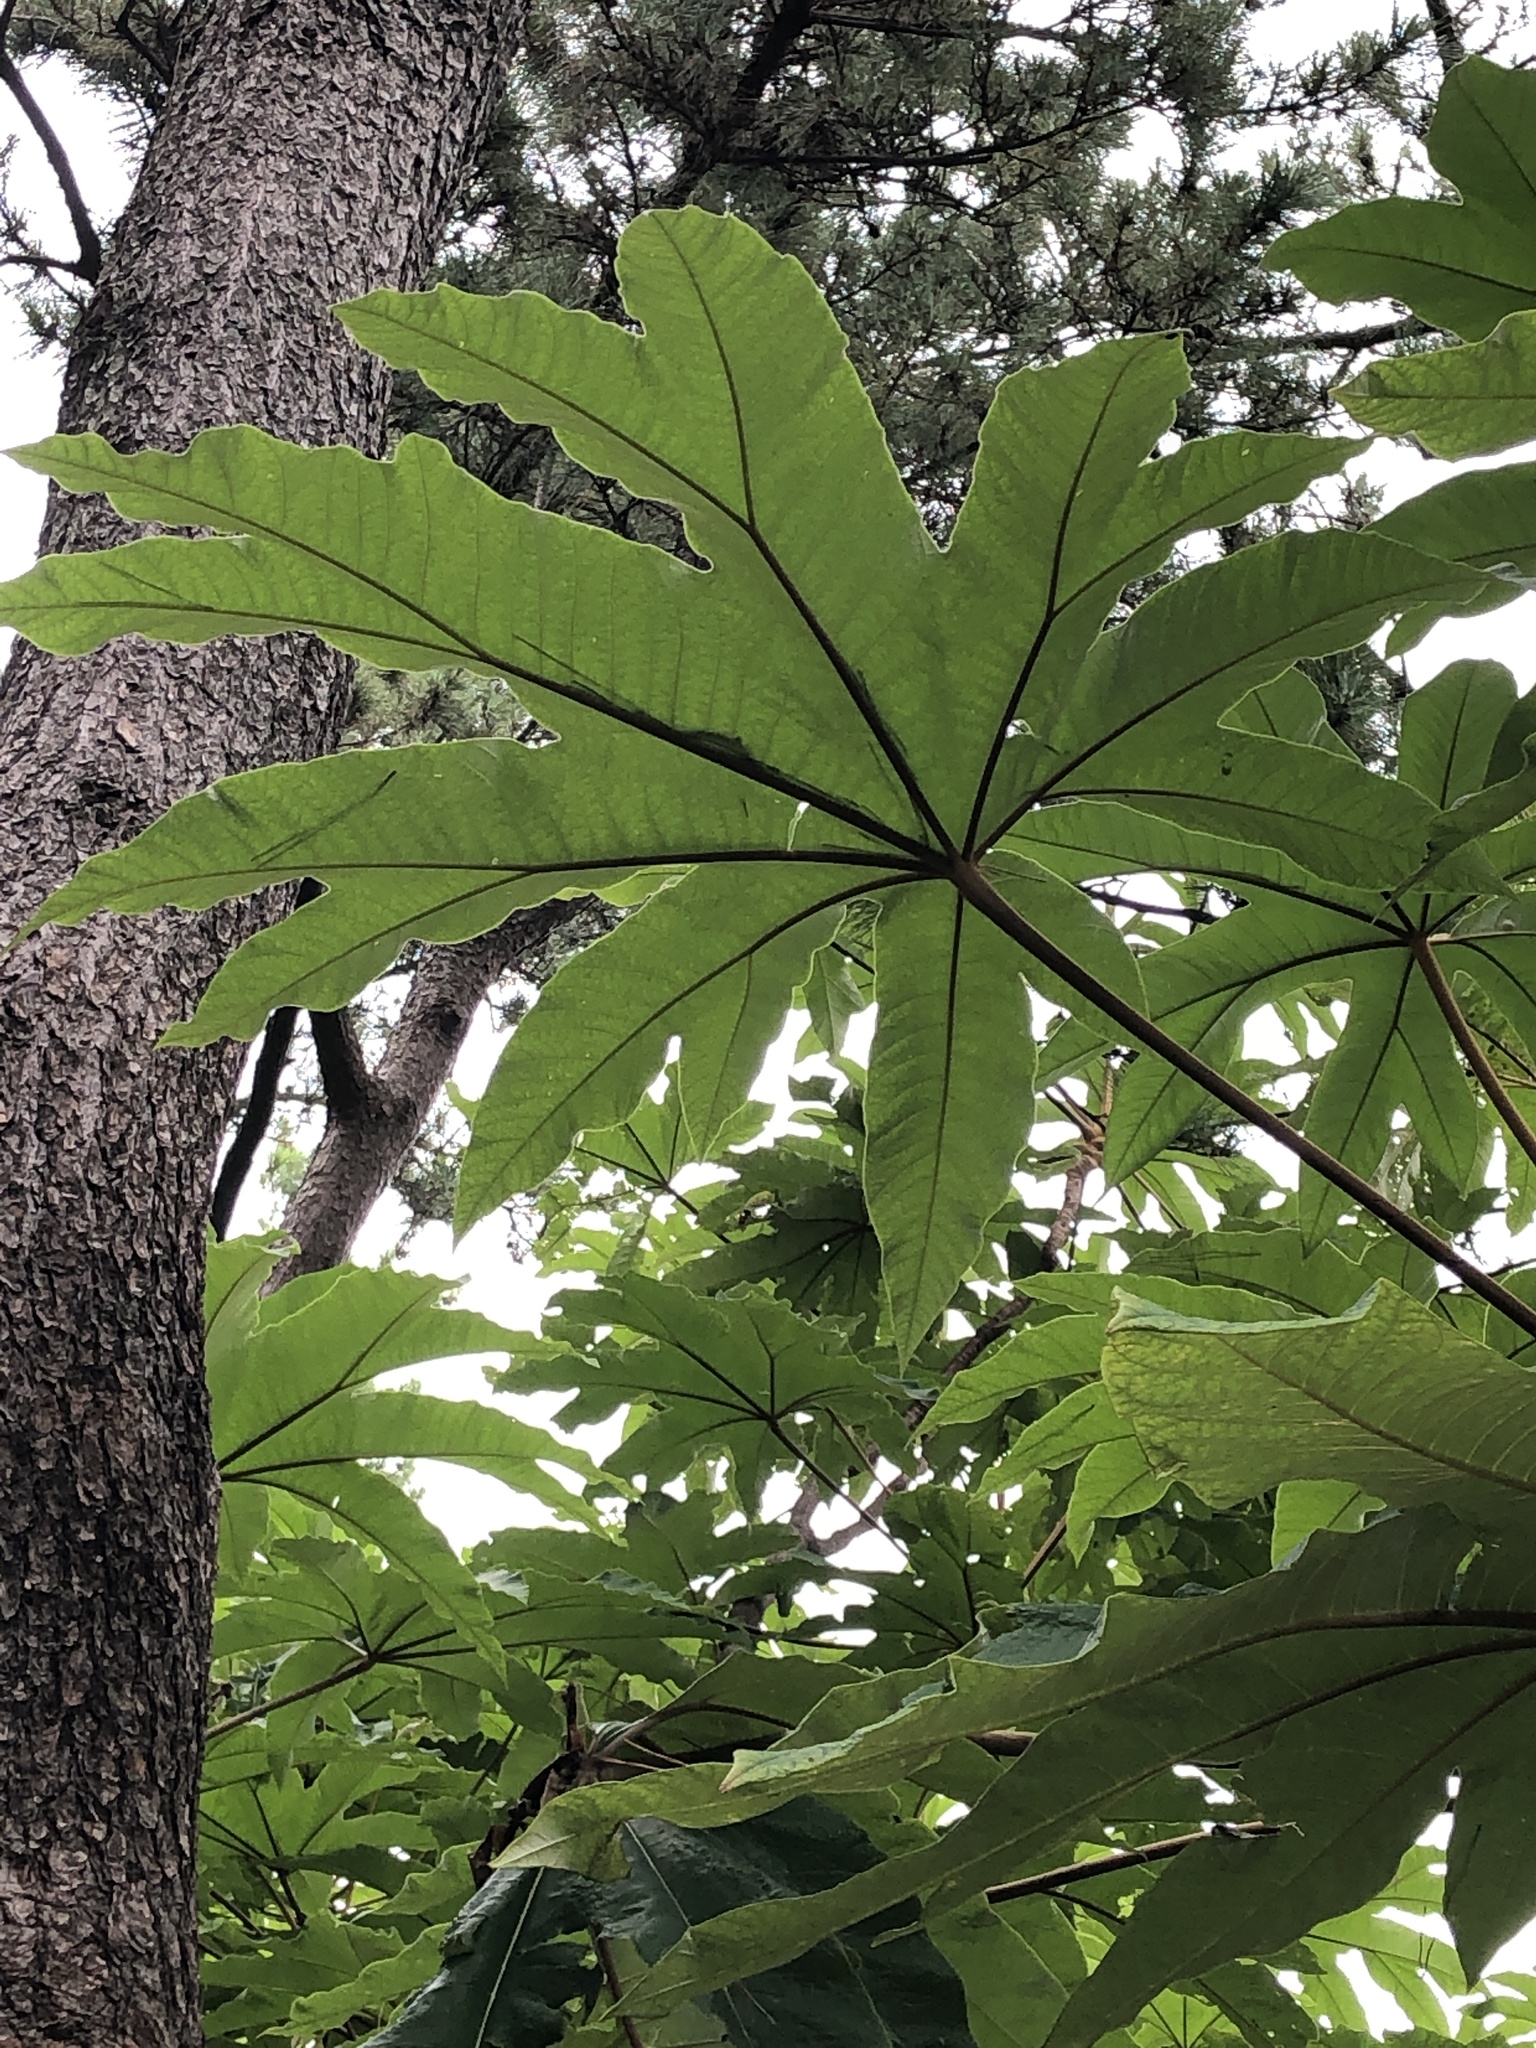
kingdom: Plantae
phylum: Tracheophyta
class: Magnoliopsida
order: Apiales
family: Araliaceae
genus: Tetrapanax
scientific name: Tetrapanax papyrifer
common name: Rice-paper plant
